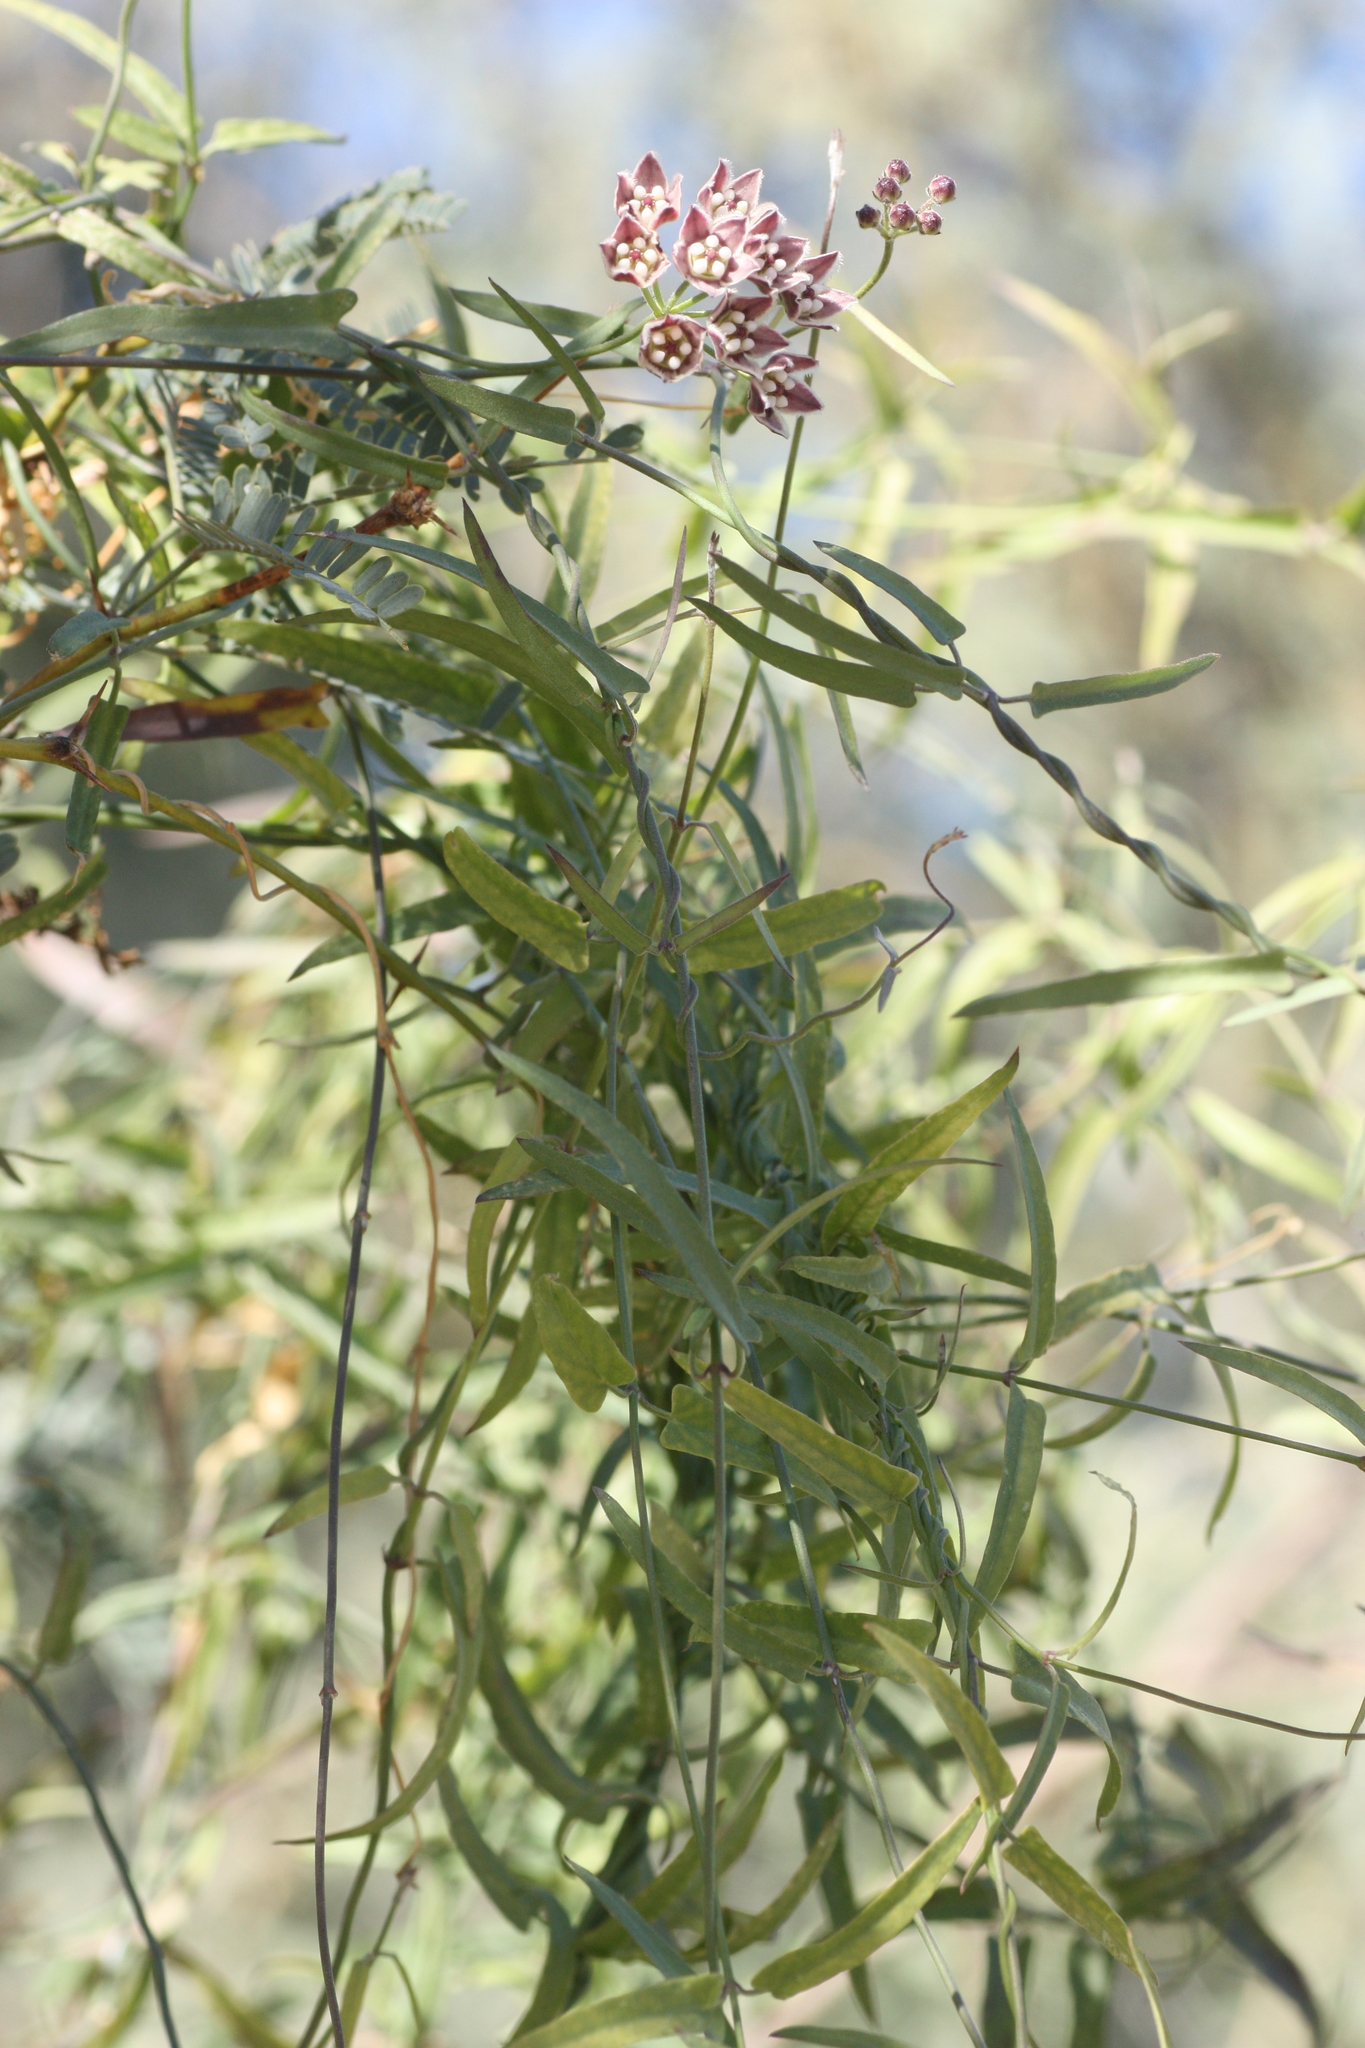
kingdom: Plantae
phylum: Tracheophyta
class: Magnoliopsida
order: Gentianales
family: Apocynaceae
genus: Funastrum
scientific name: Funastrum heterophyllum
